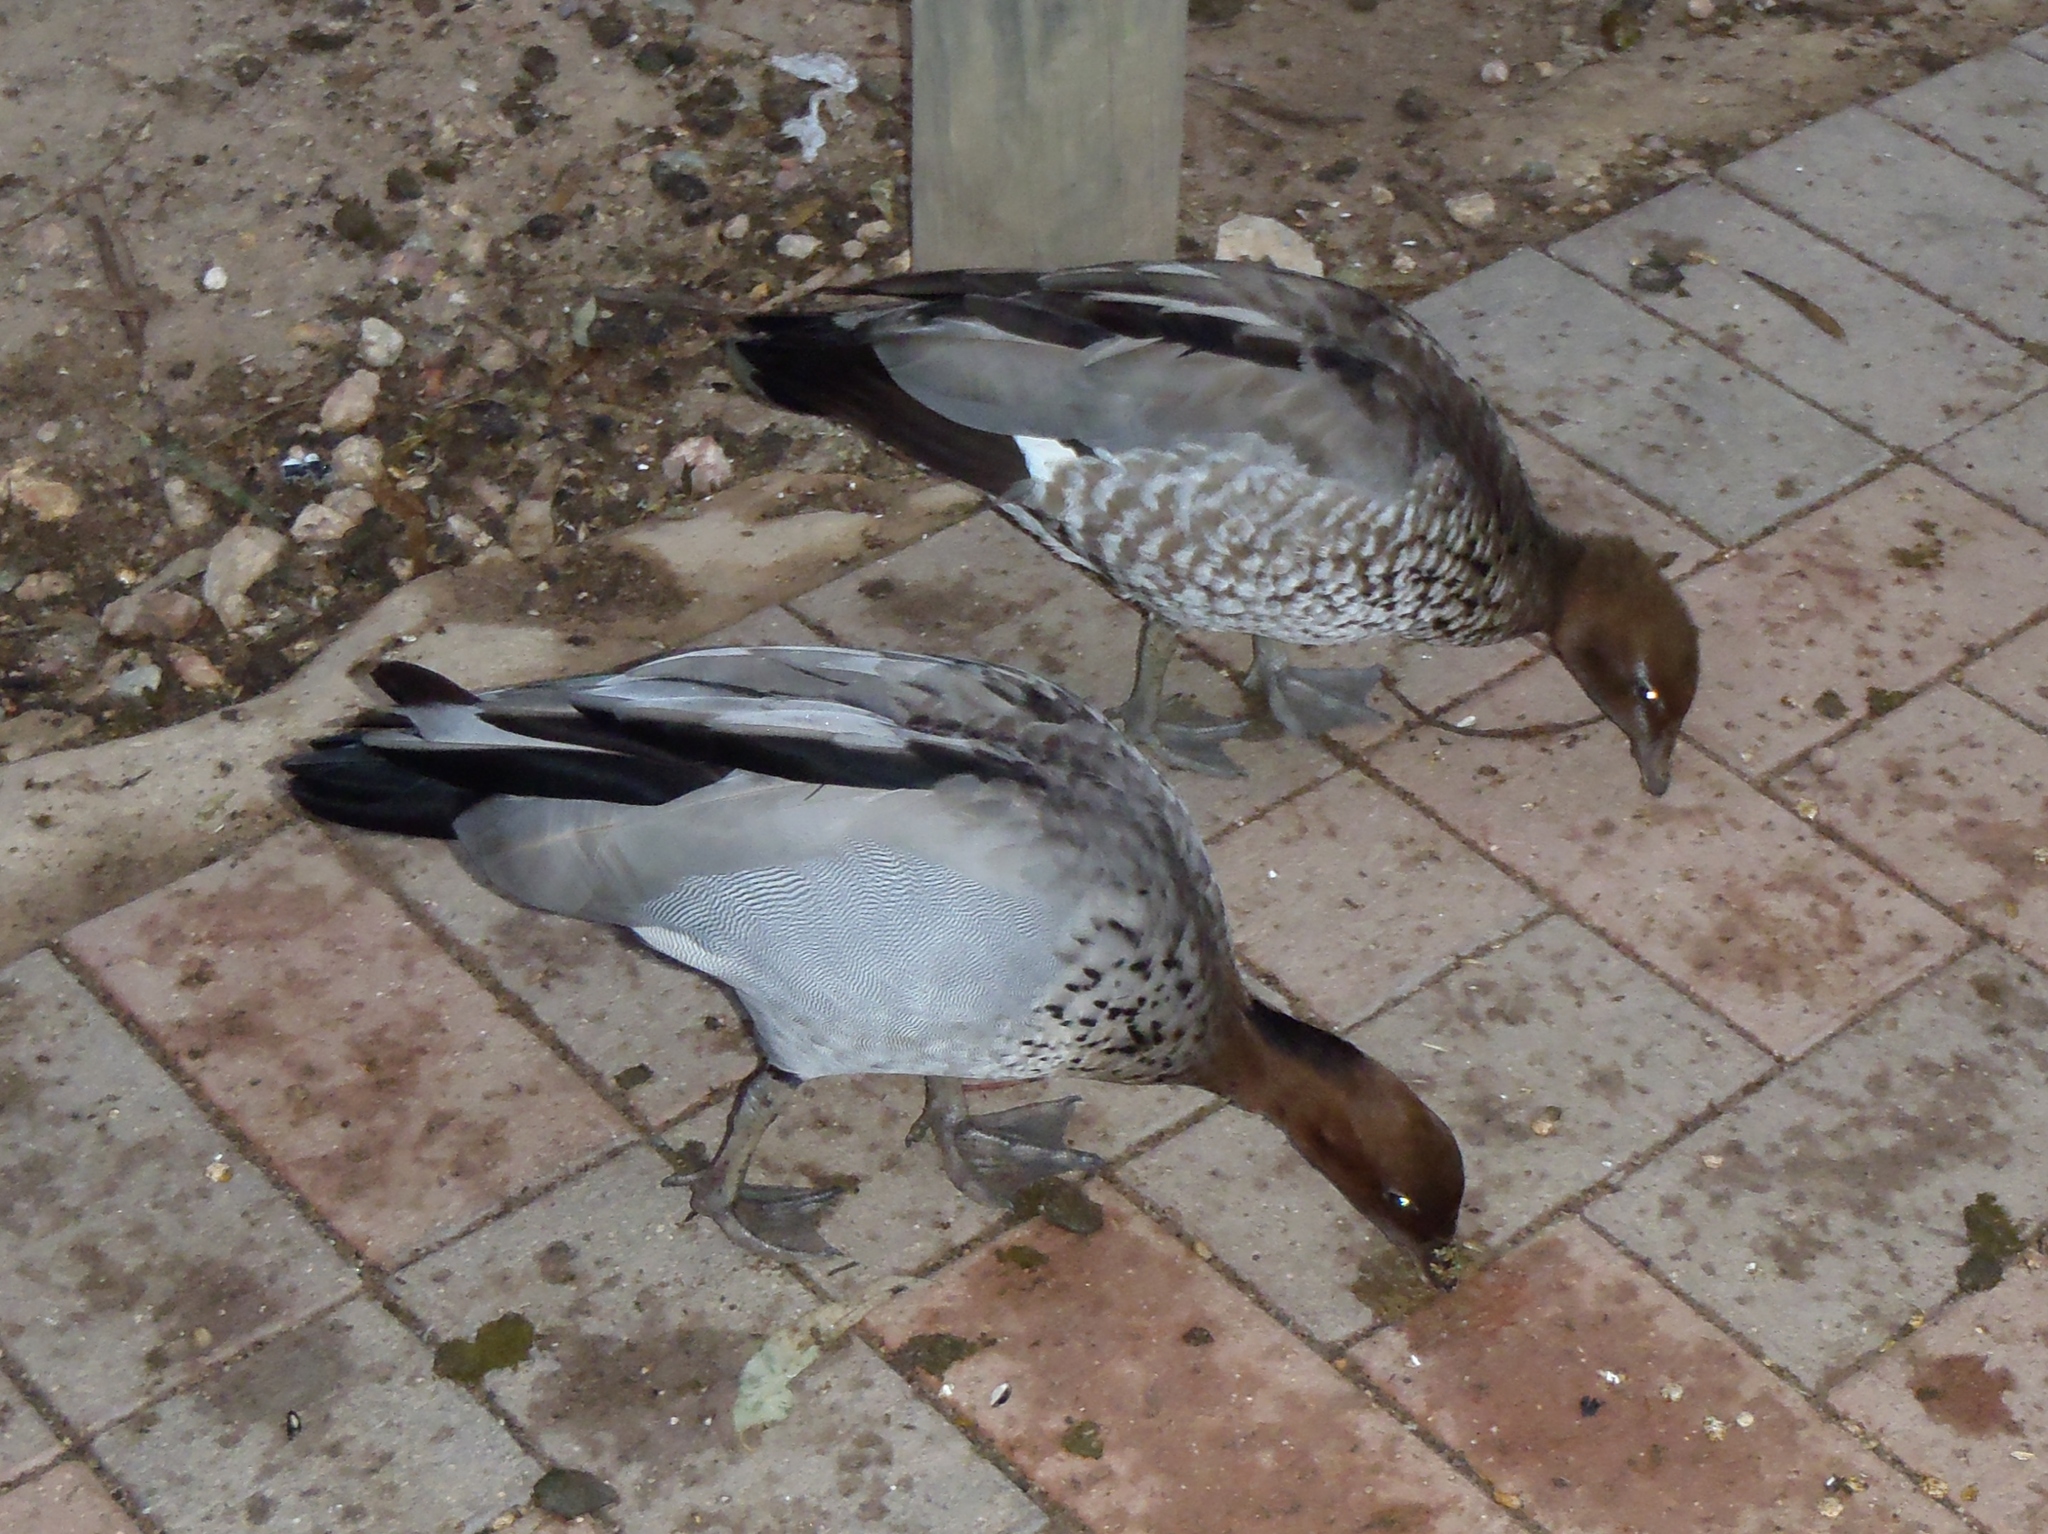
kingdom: Animalia
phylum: Chordata
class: Aves
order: Anseriformes
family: Anatidae
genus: Chenonetta
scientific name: Chenonetta jubata
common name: Maned duck
